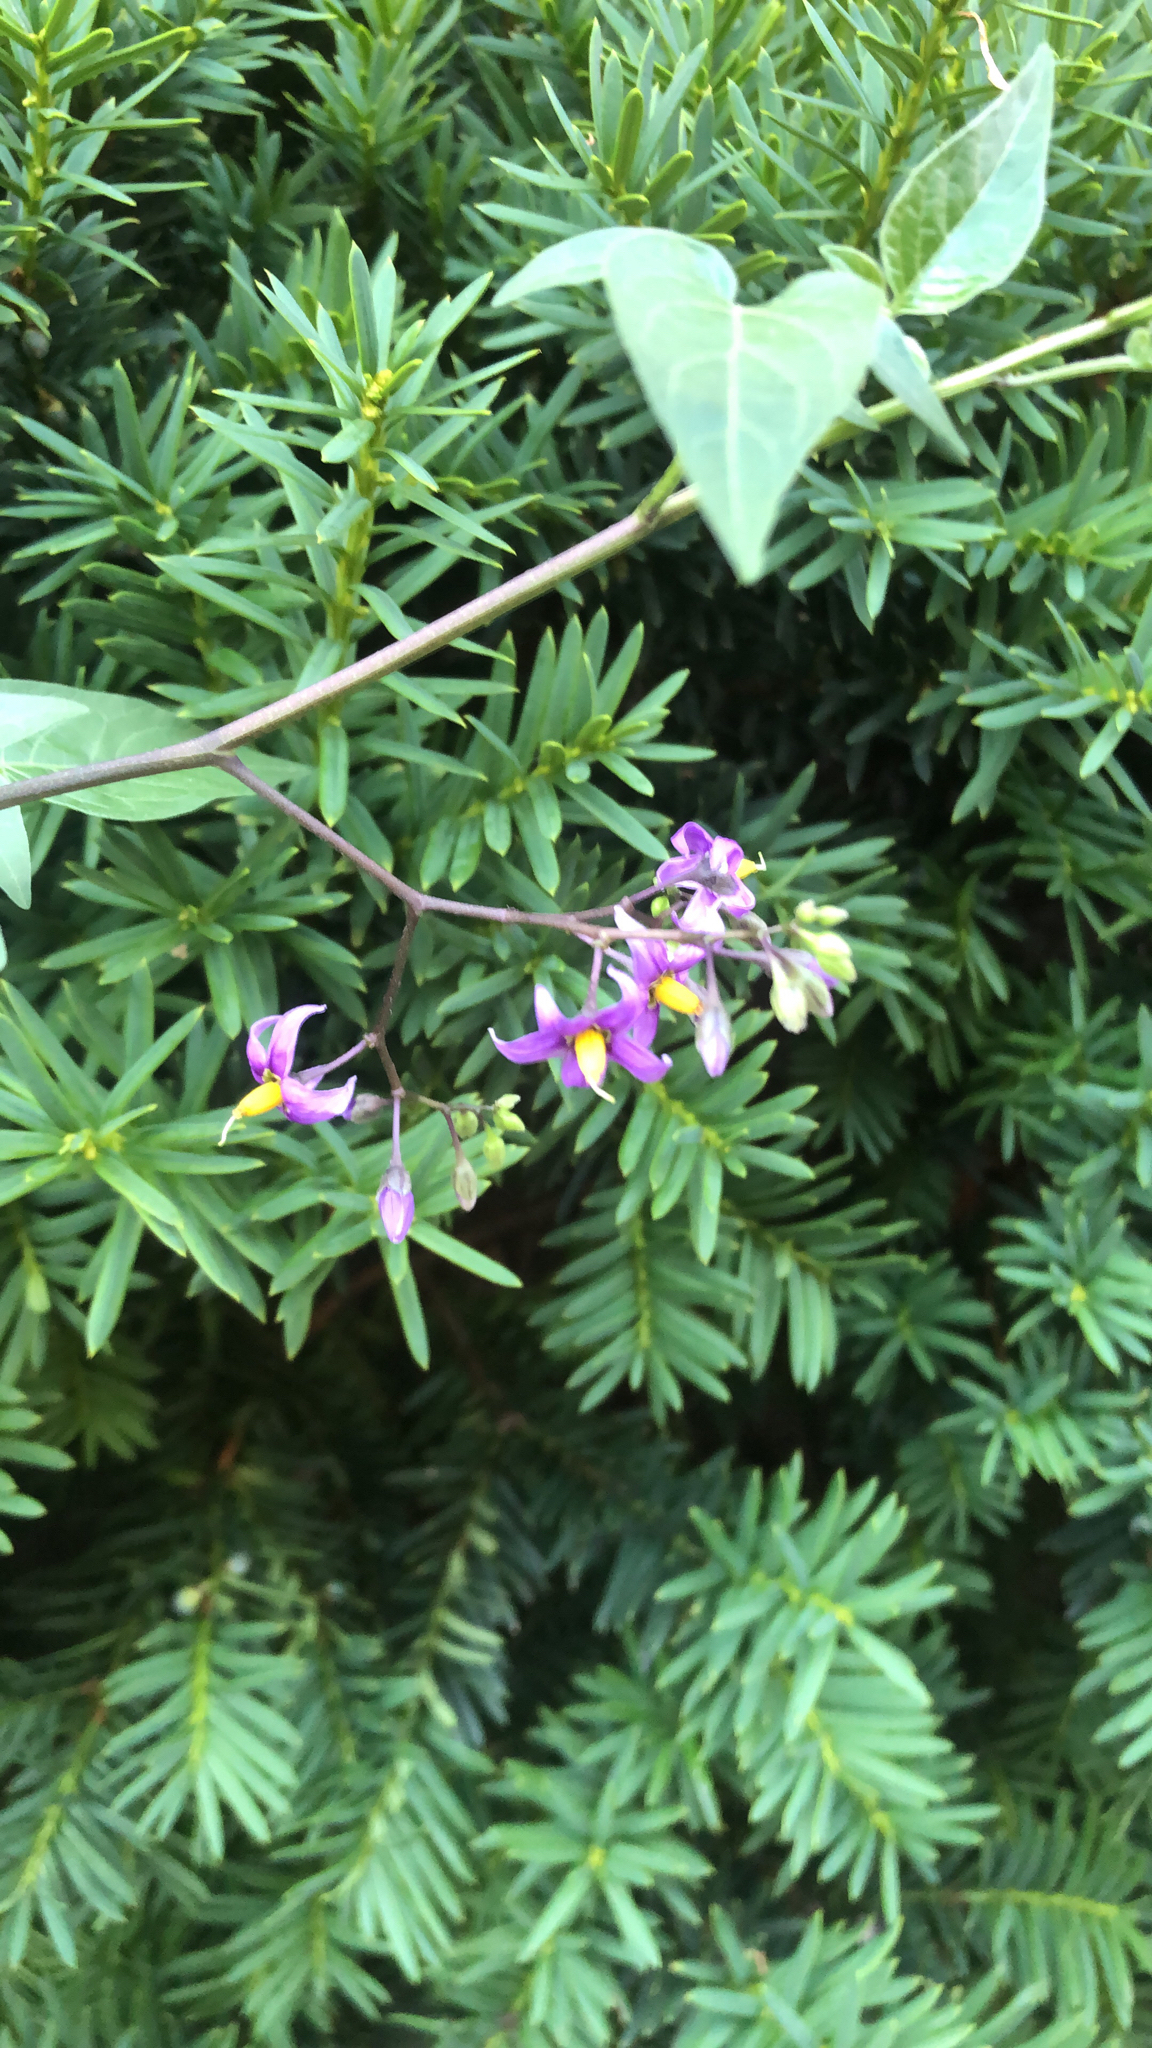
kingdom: Plantae
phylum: Tracheophyta
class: Magnoliopsida
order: Solanales
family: Solanaceae
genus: Solanum
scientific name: Solanum dulcamara
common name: Climbing nightshade
